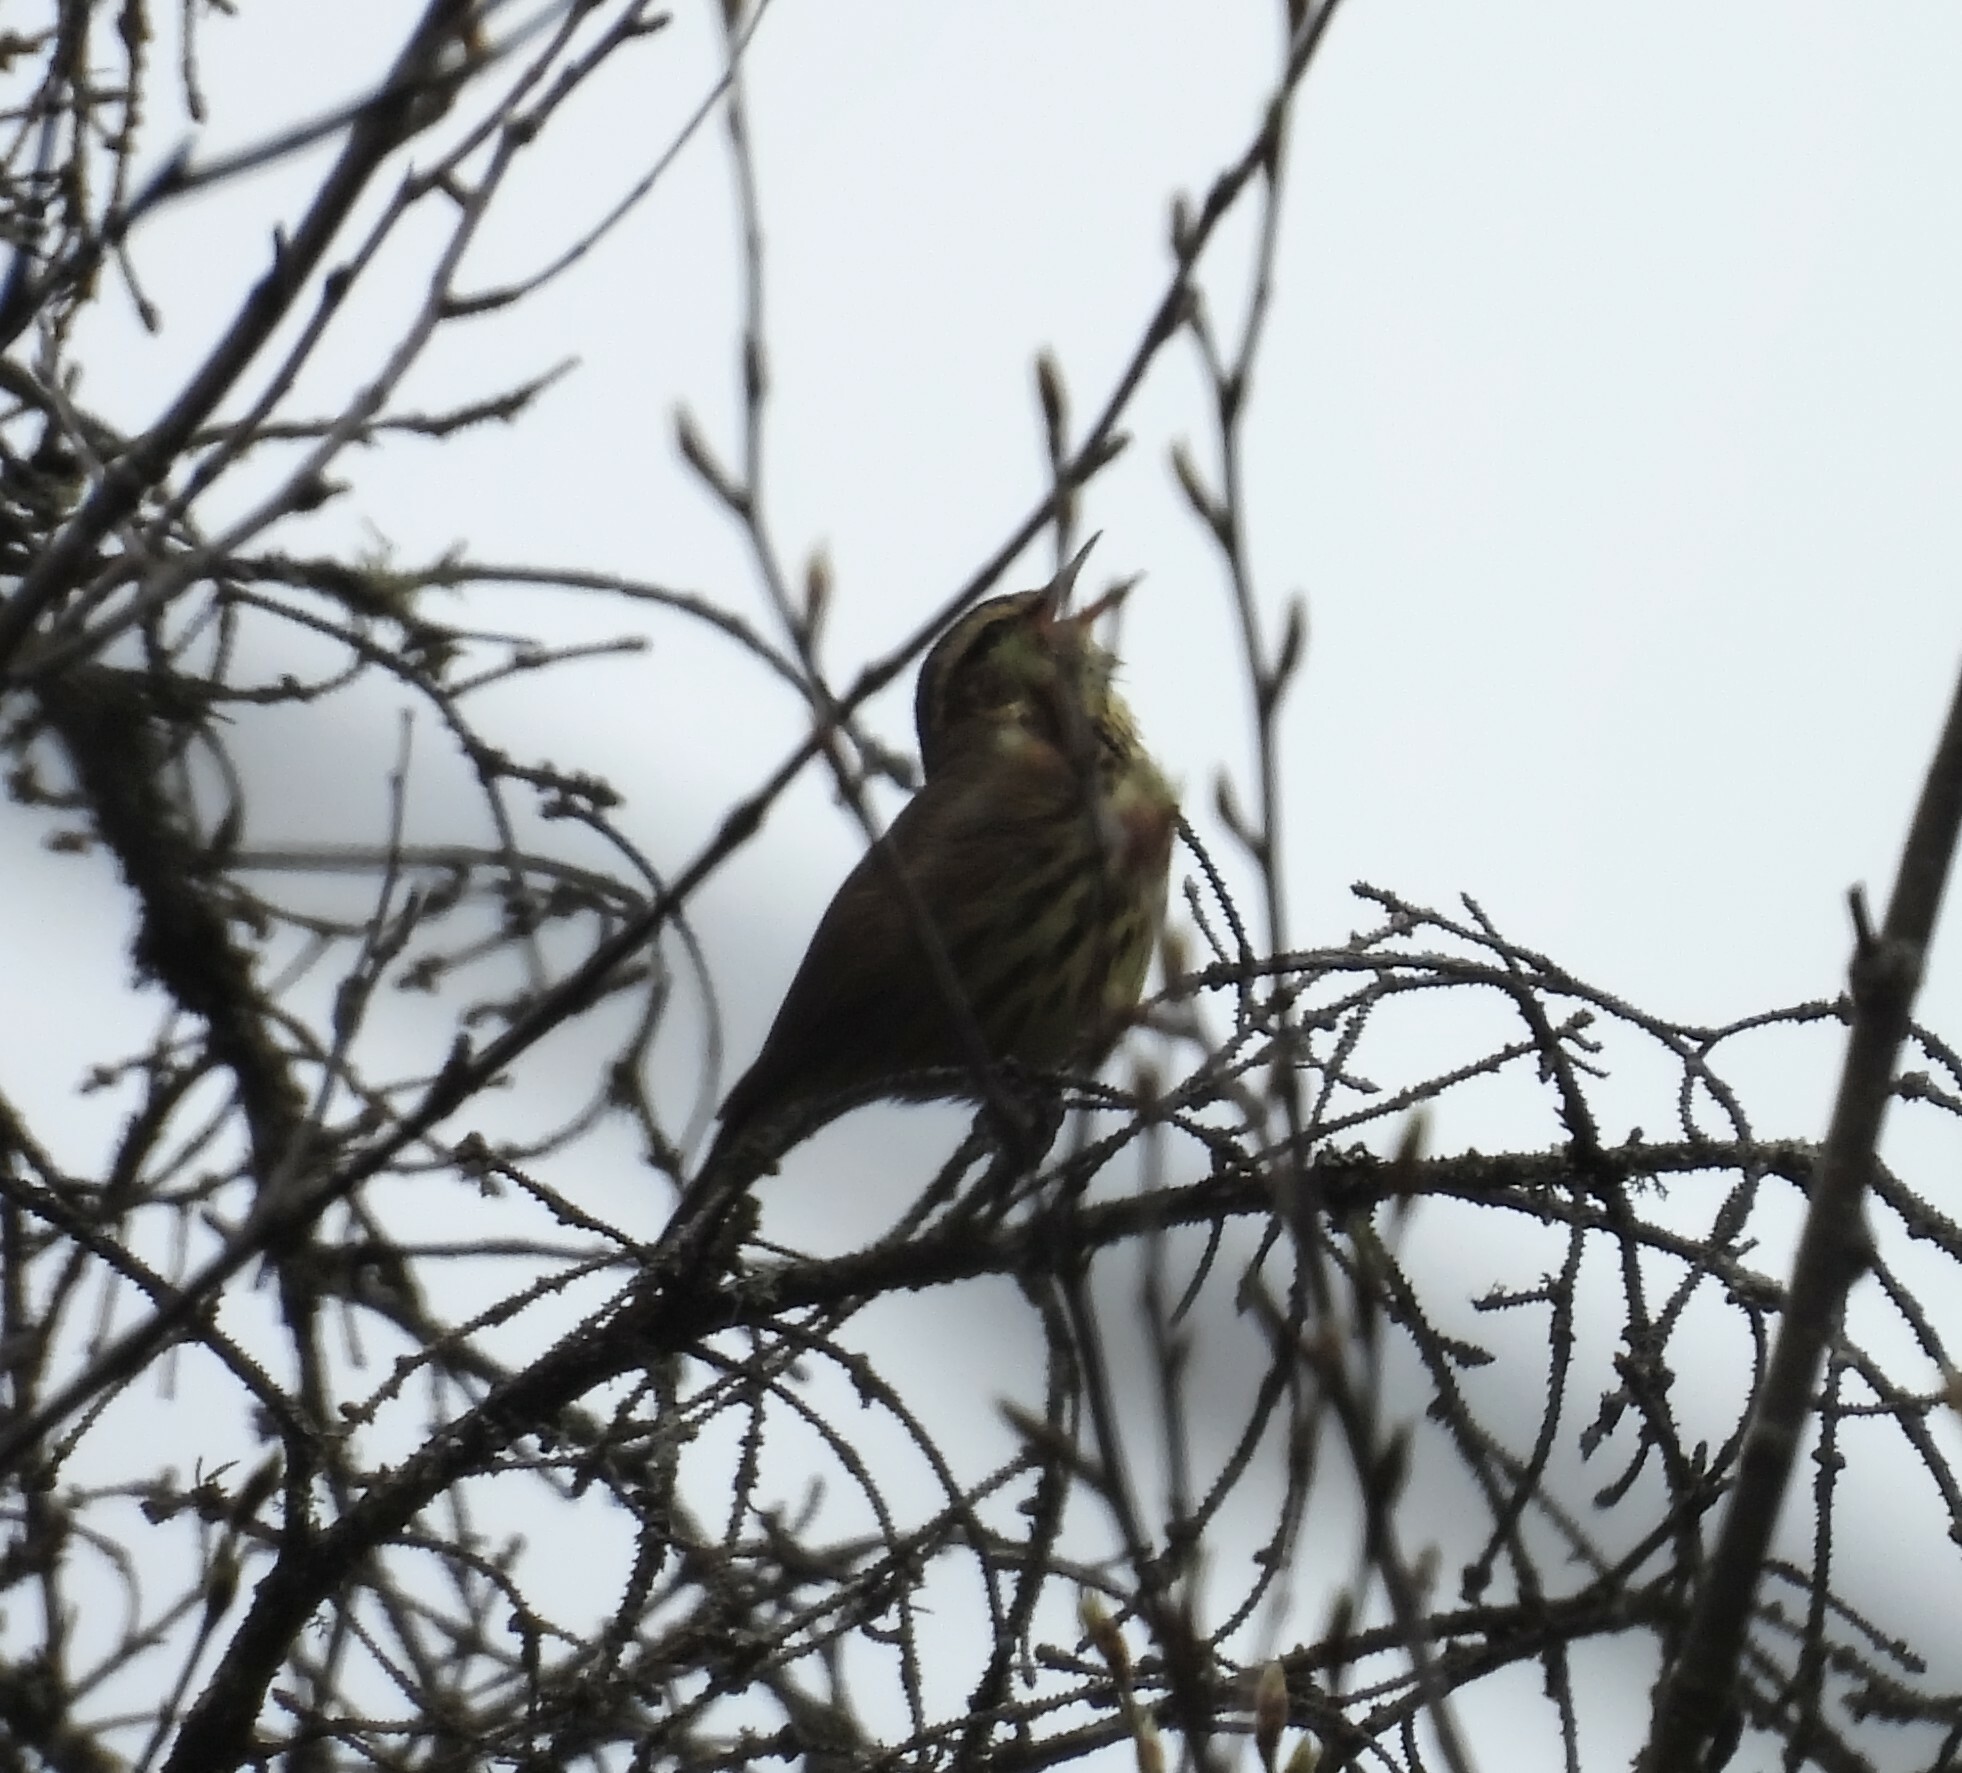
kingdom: Animalia
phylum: Chordata
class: Aves
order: Passeriformes
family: Parulidae
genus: Parkesia
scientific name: Parkesia noveboracensis
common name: Northern waterthrush
